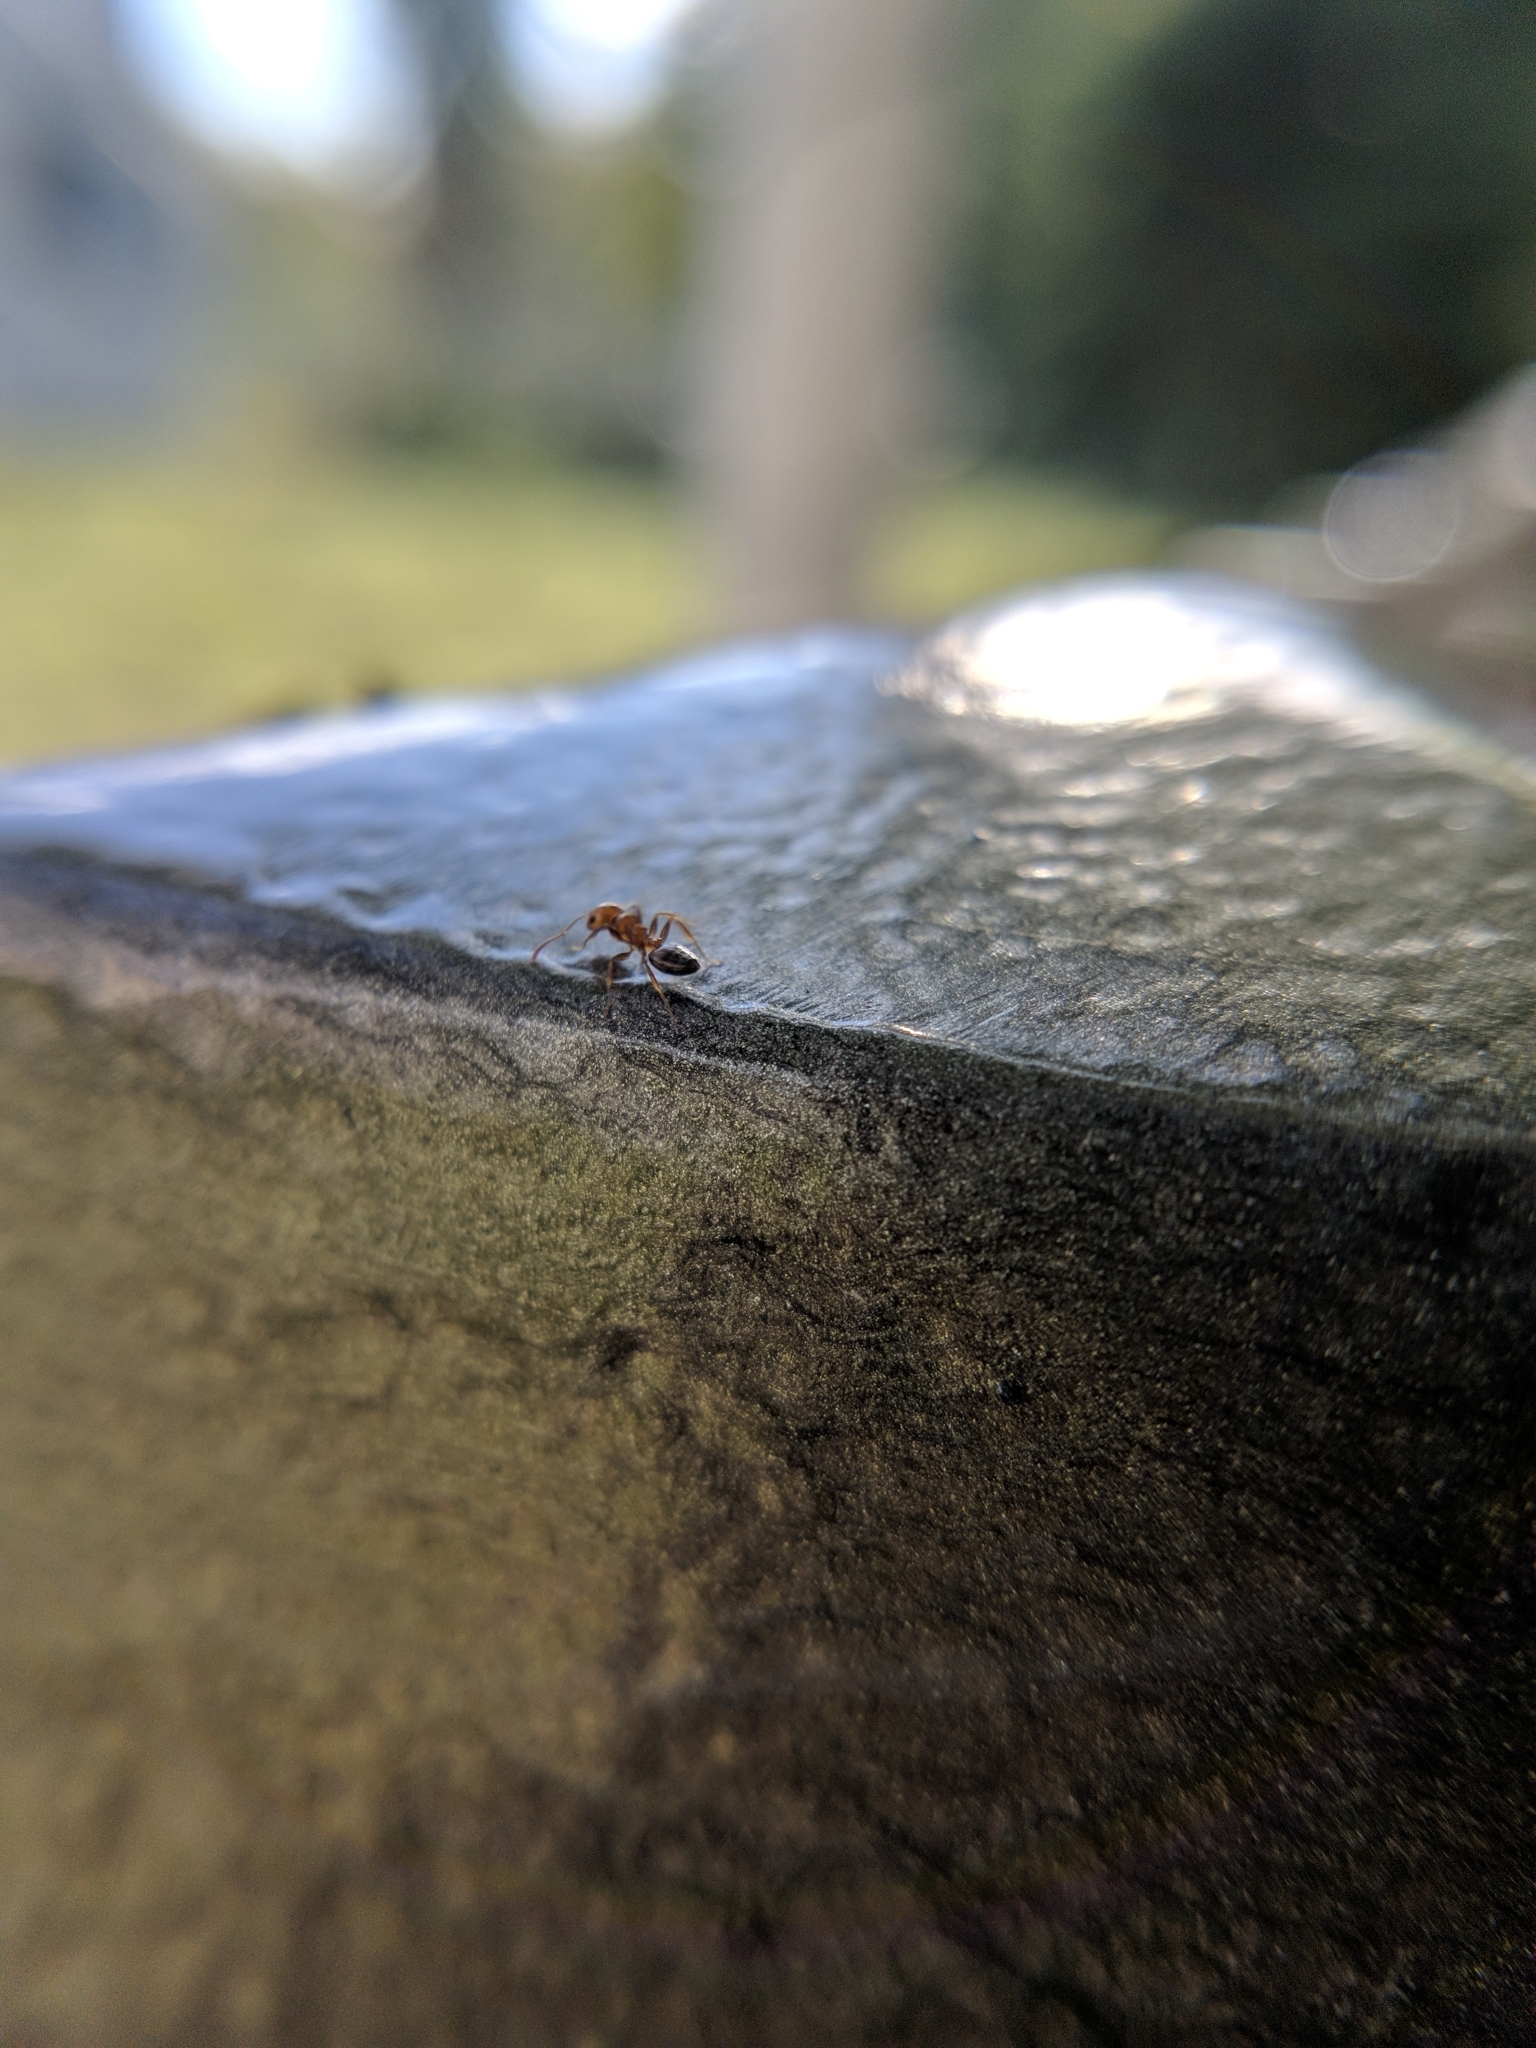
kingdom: Animalia
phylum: Arthropoda
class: Insecta
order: Hymenoptera
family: Formicidae
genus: Crematogaster
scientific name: Crematogaster schmidti
